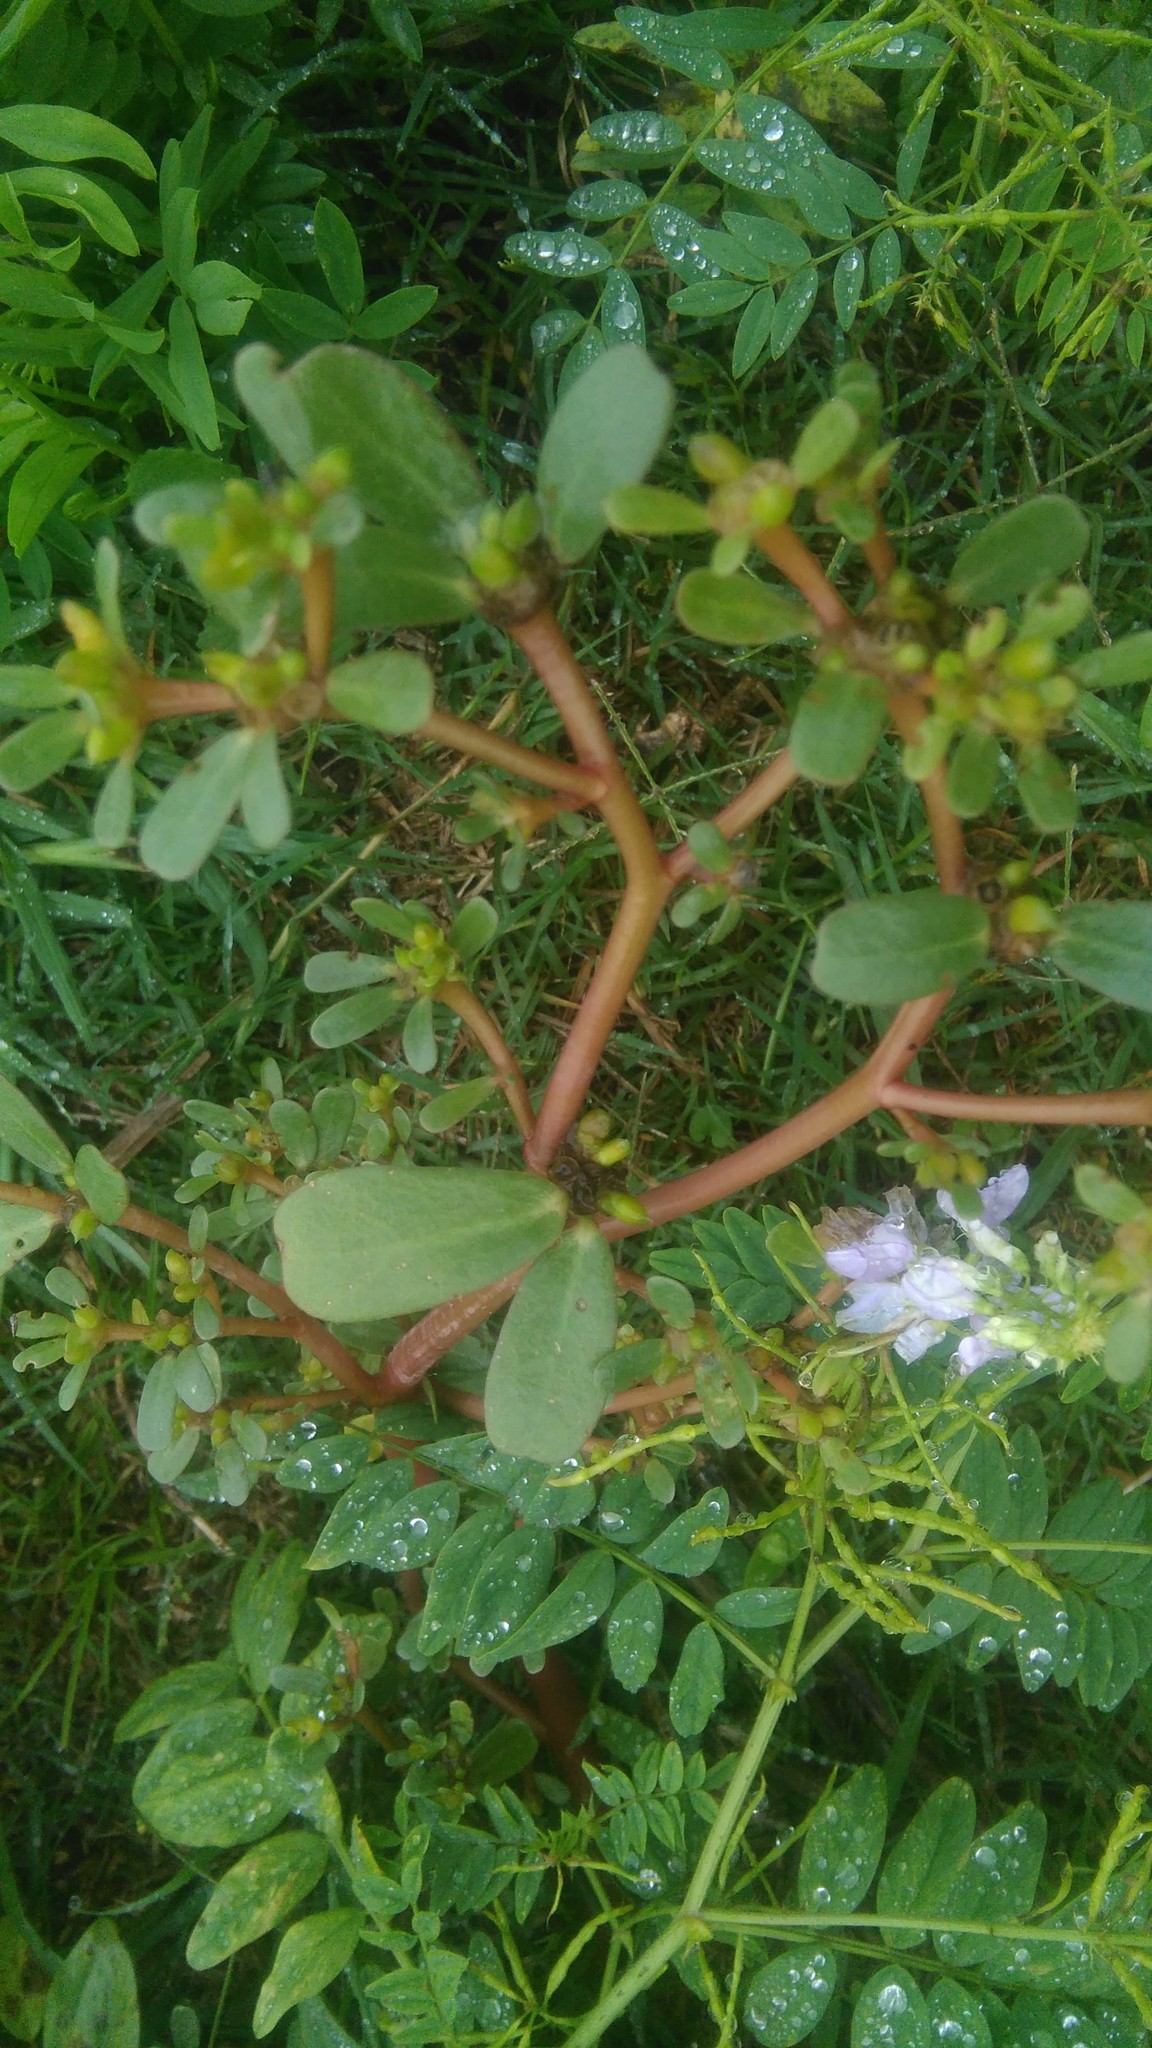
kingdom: Plantae
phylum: Tracheophyta
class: Magnoliopsida
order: Caryophyllales
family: Portulacaceae
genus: Portulaca
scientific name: Portulaca oleracea
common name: Common purslane
